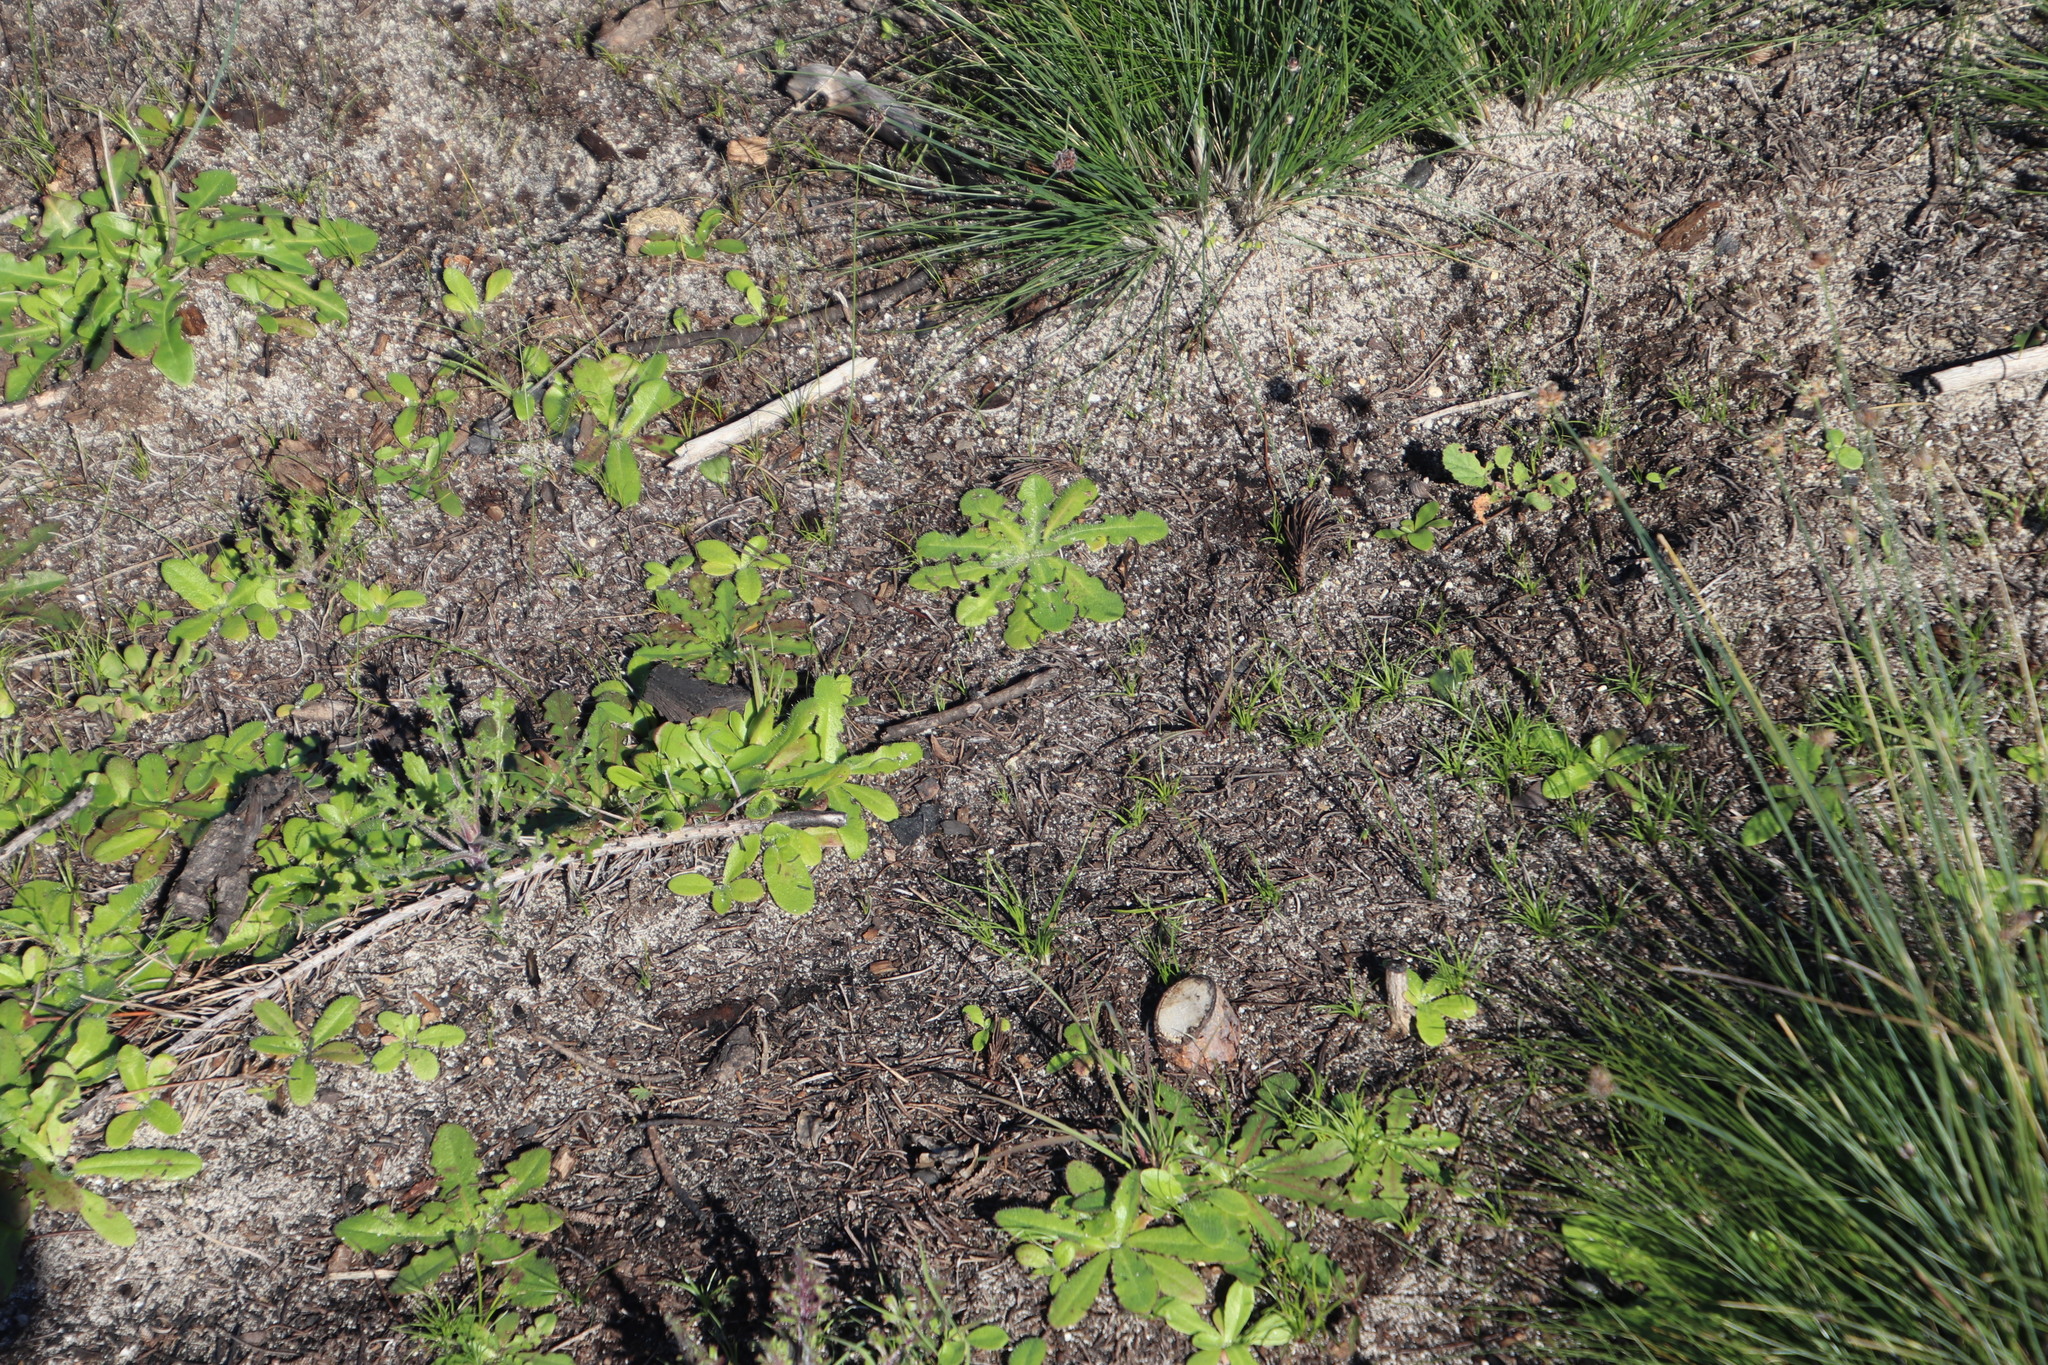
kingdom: Plantae
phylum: Tracheophyta
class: Magnoliopsida
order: Asterales
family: Asteraceae
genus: Hypochaeris
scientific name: Hypochaeris radicata
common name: Flatweed
